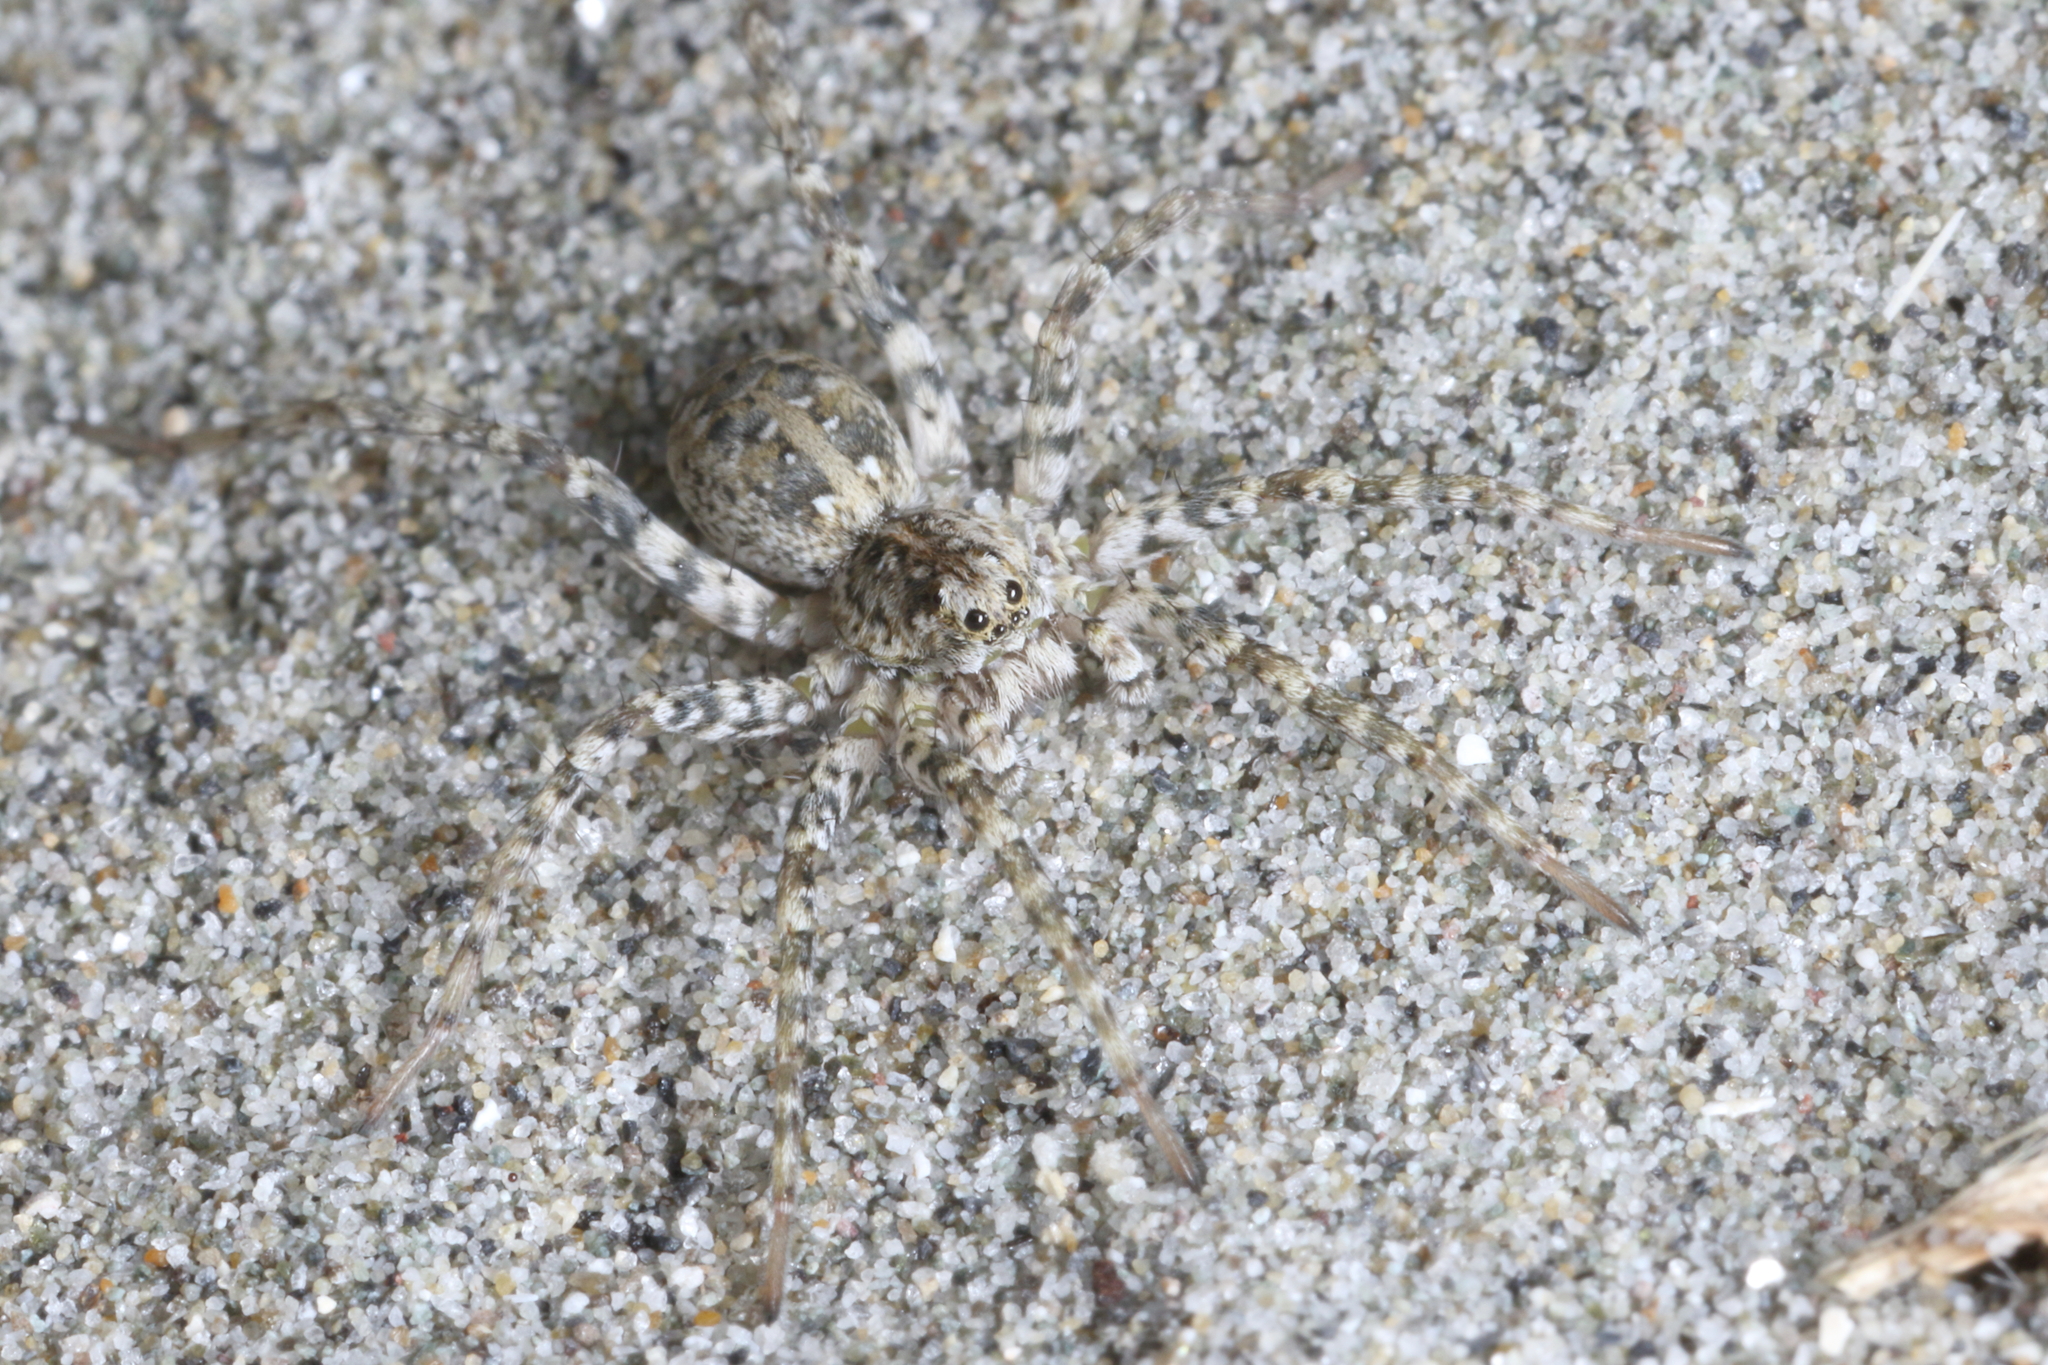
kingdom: Animalia
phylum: Arthropoda
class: Arachnida
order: Araneae
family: Lycosidae
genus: Anoteropsis
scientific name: Anoteropsis litoralis
